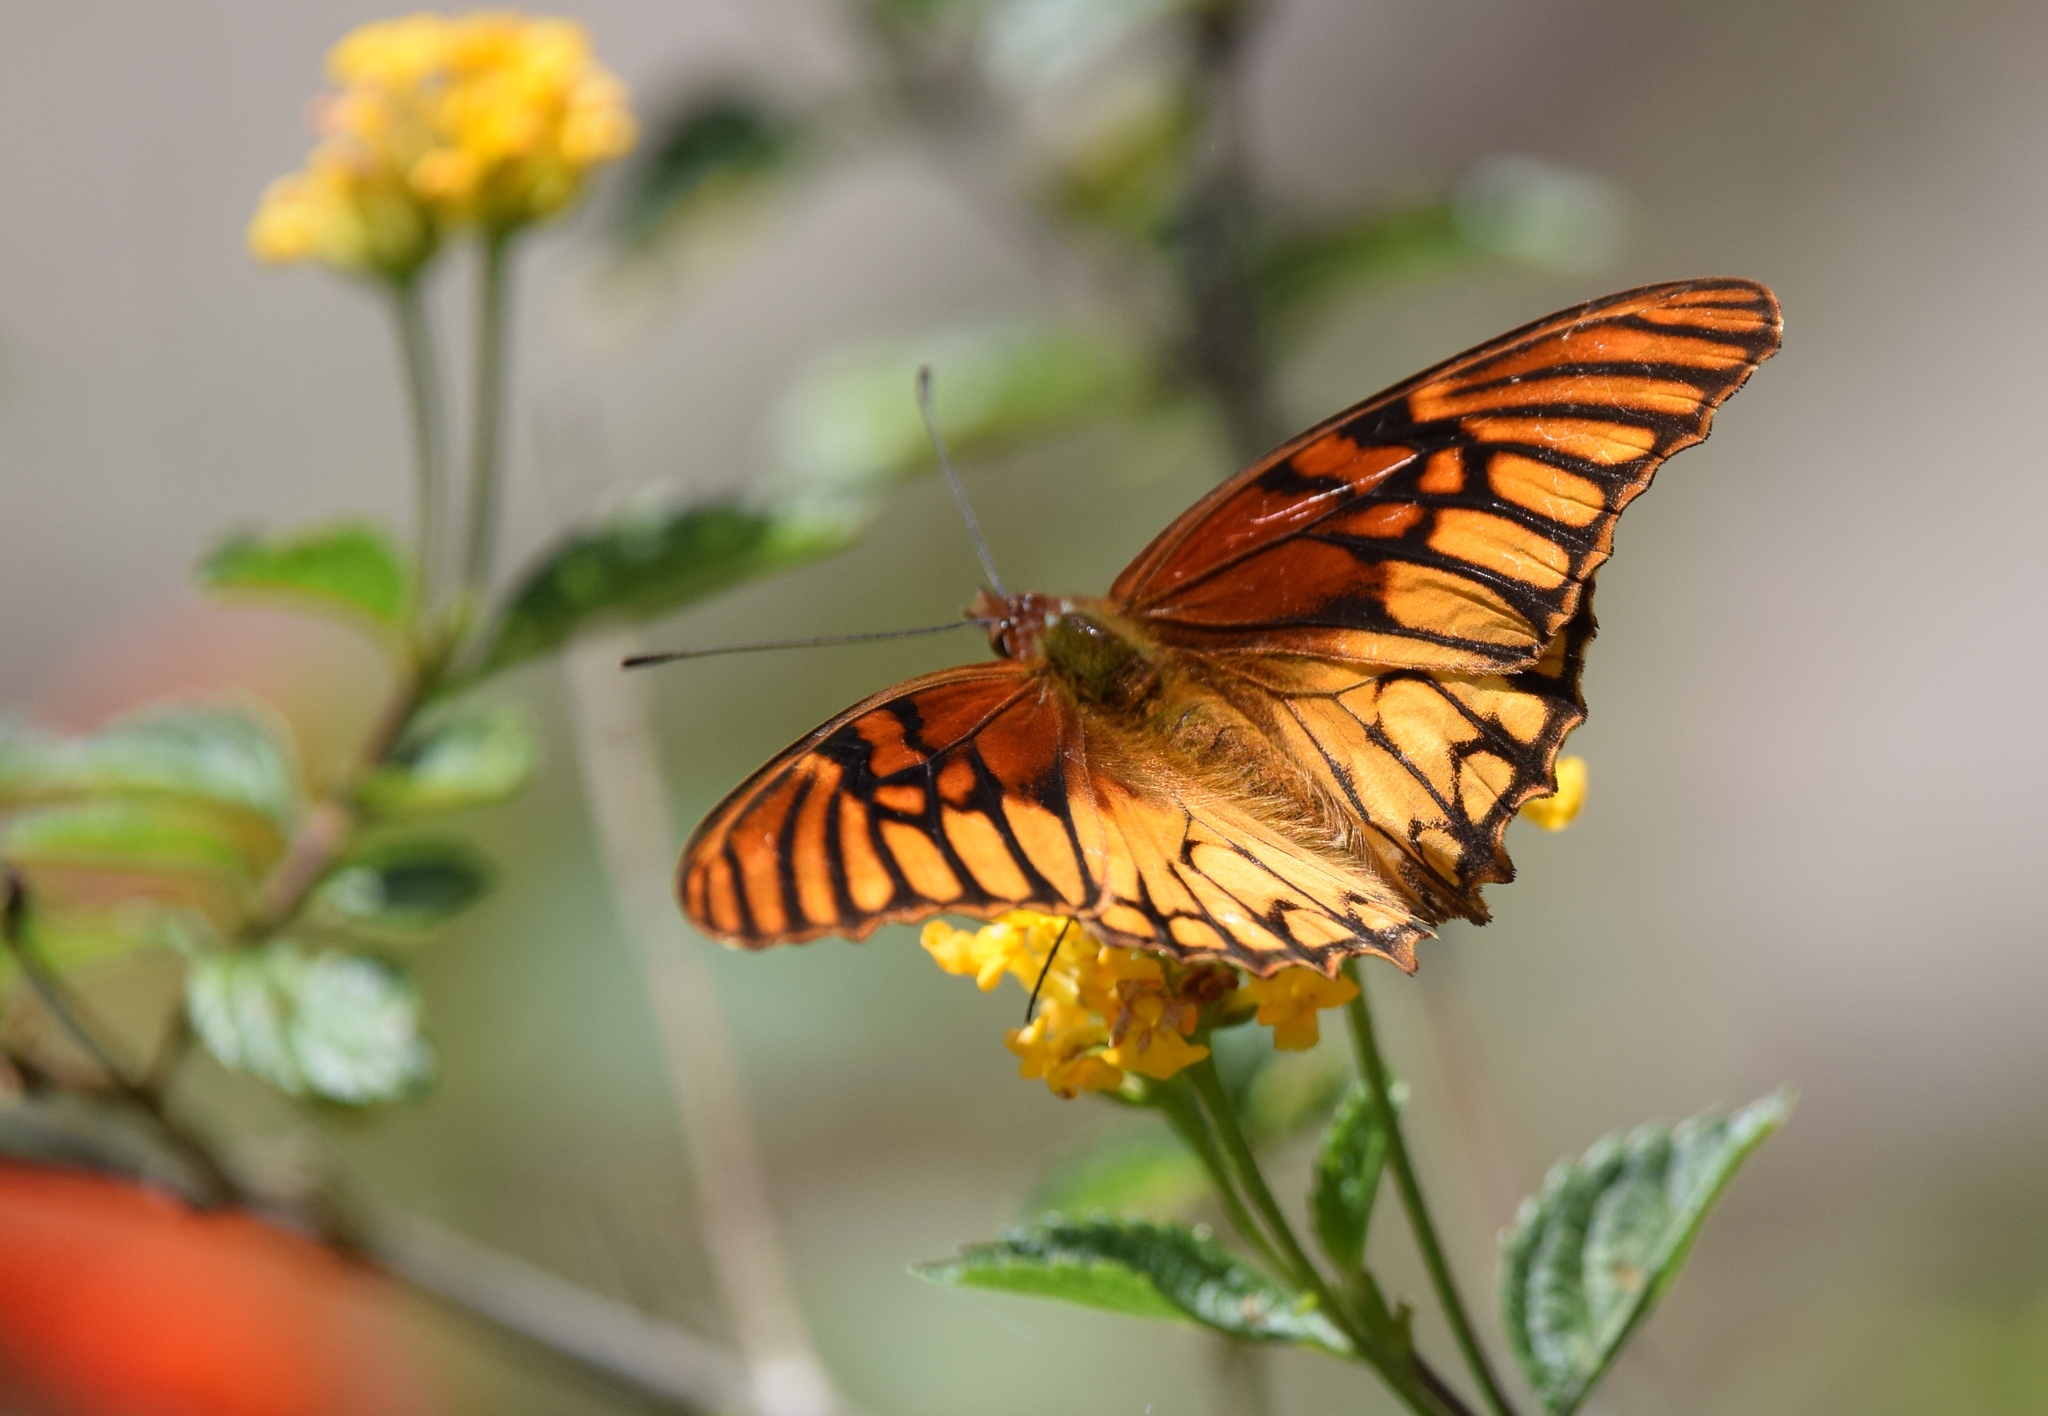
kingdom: Animalia
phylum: Arthropoda
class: Insecta
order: Lepidoptera
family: Nymphalidae
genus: Dione
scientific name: Dione moneta
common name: Mexican silverspot
